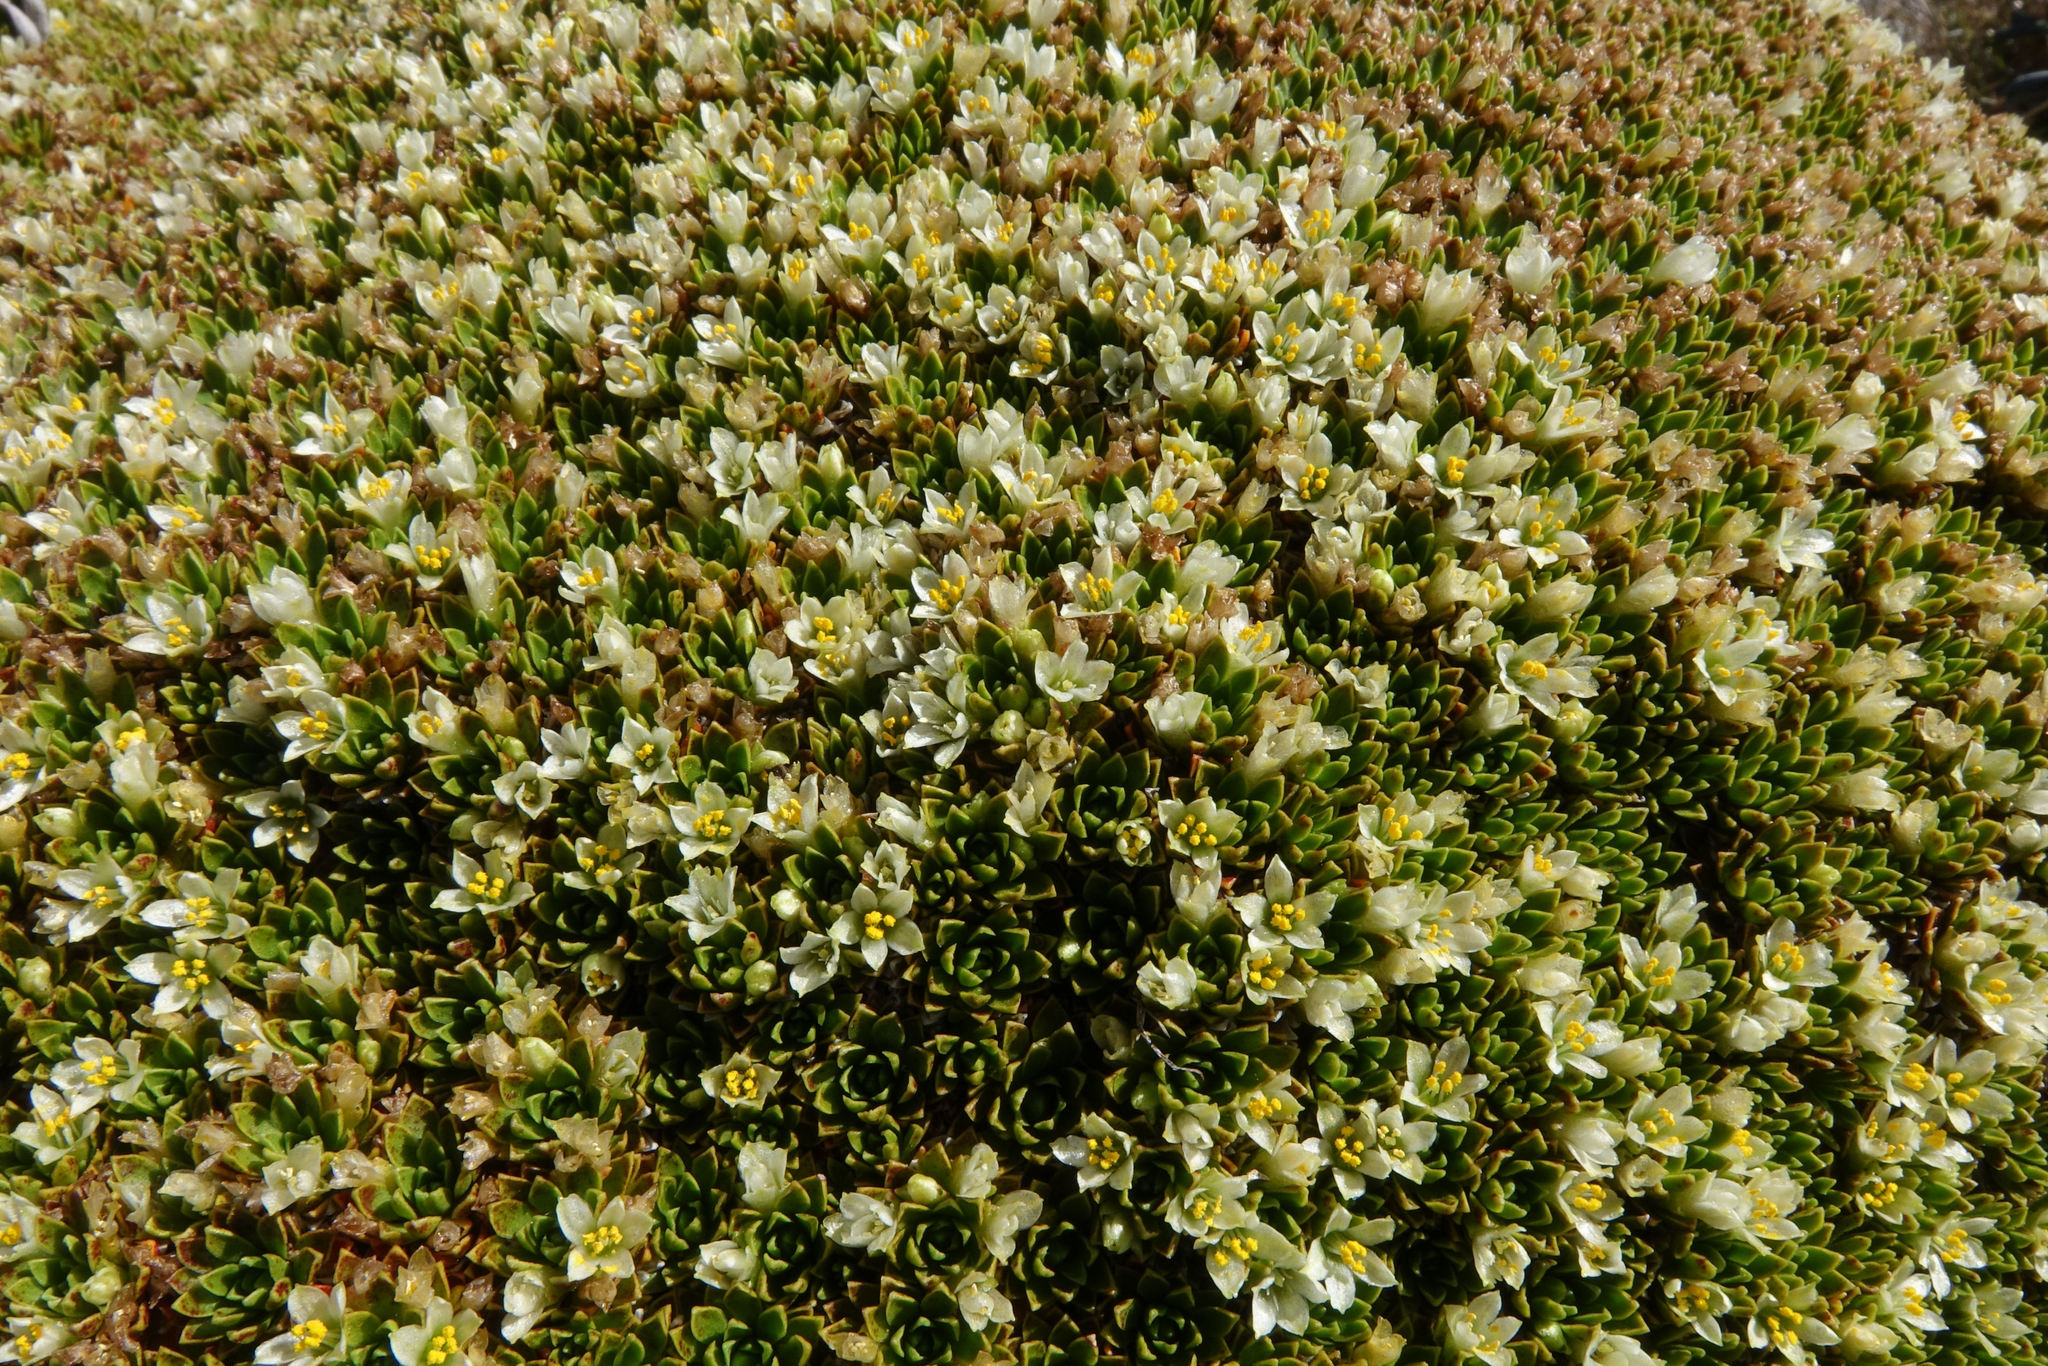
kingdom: Plantae
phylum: Tracheophyta
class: Magnoliopsida
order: Caryophyllales
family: Montiaceae
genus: Hectorella
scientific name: Hectorella caespitosa
